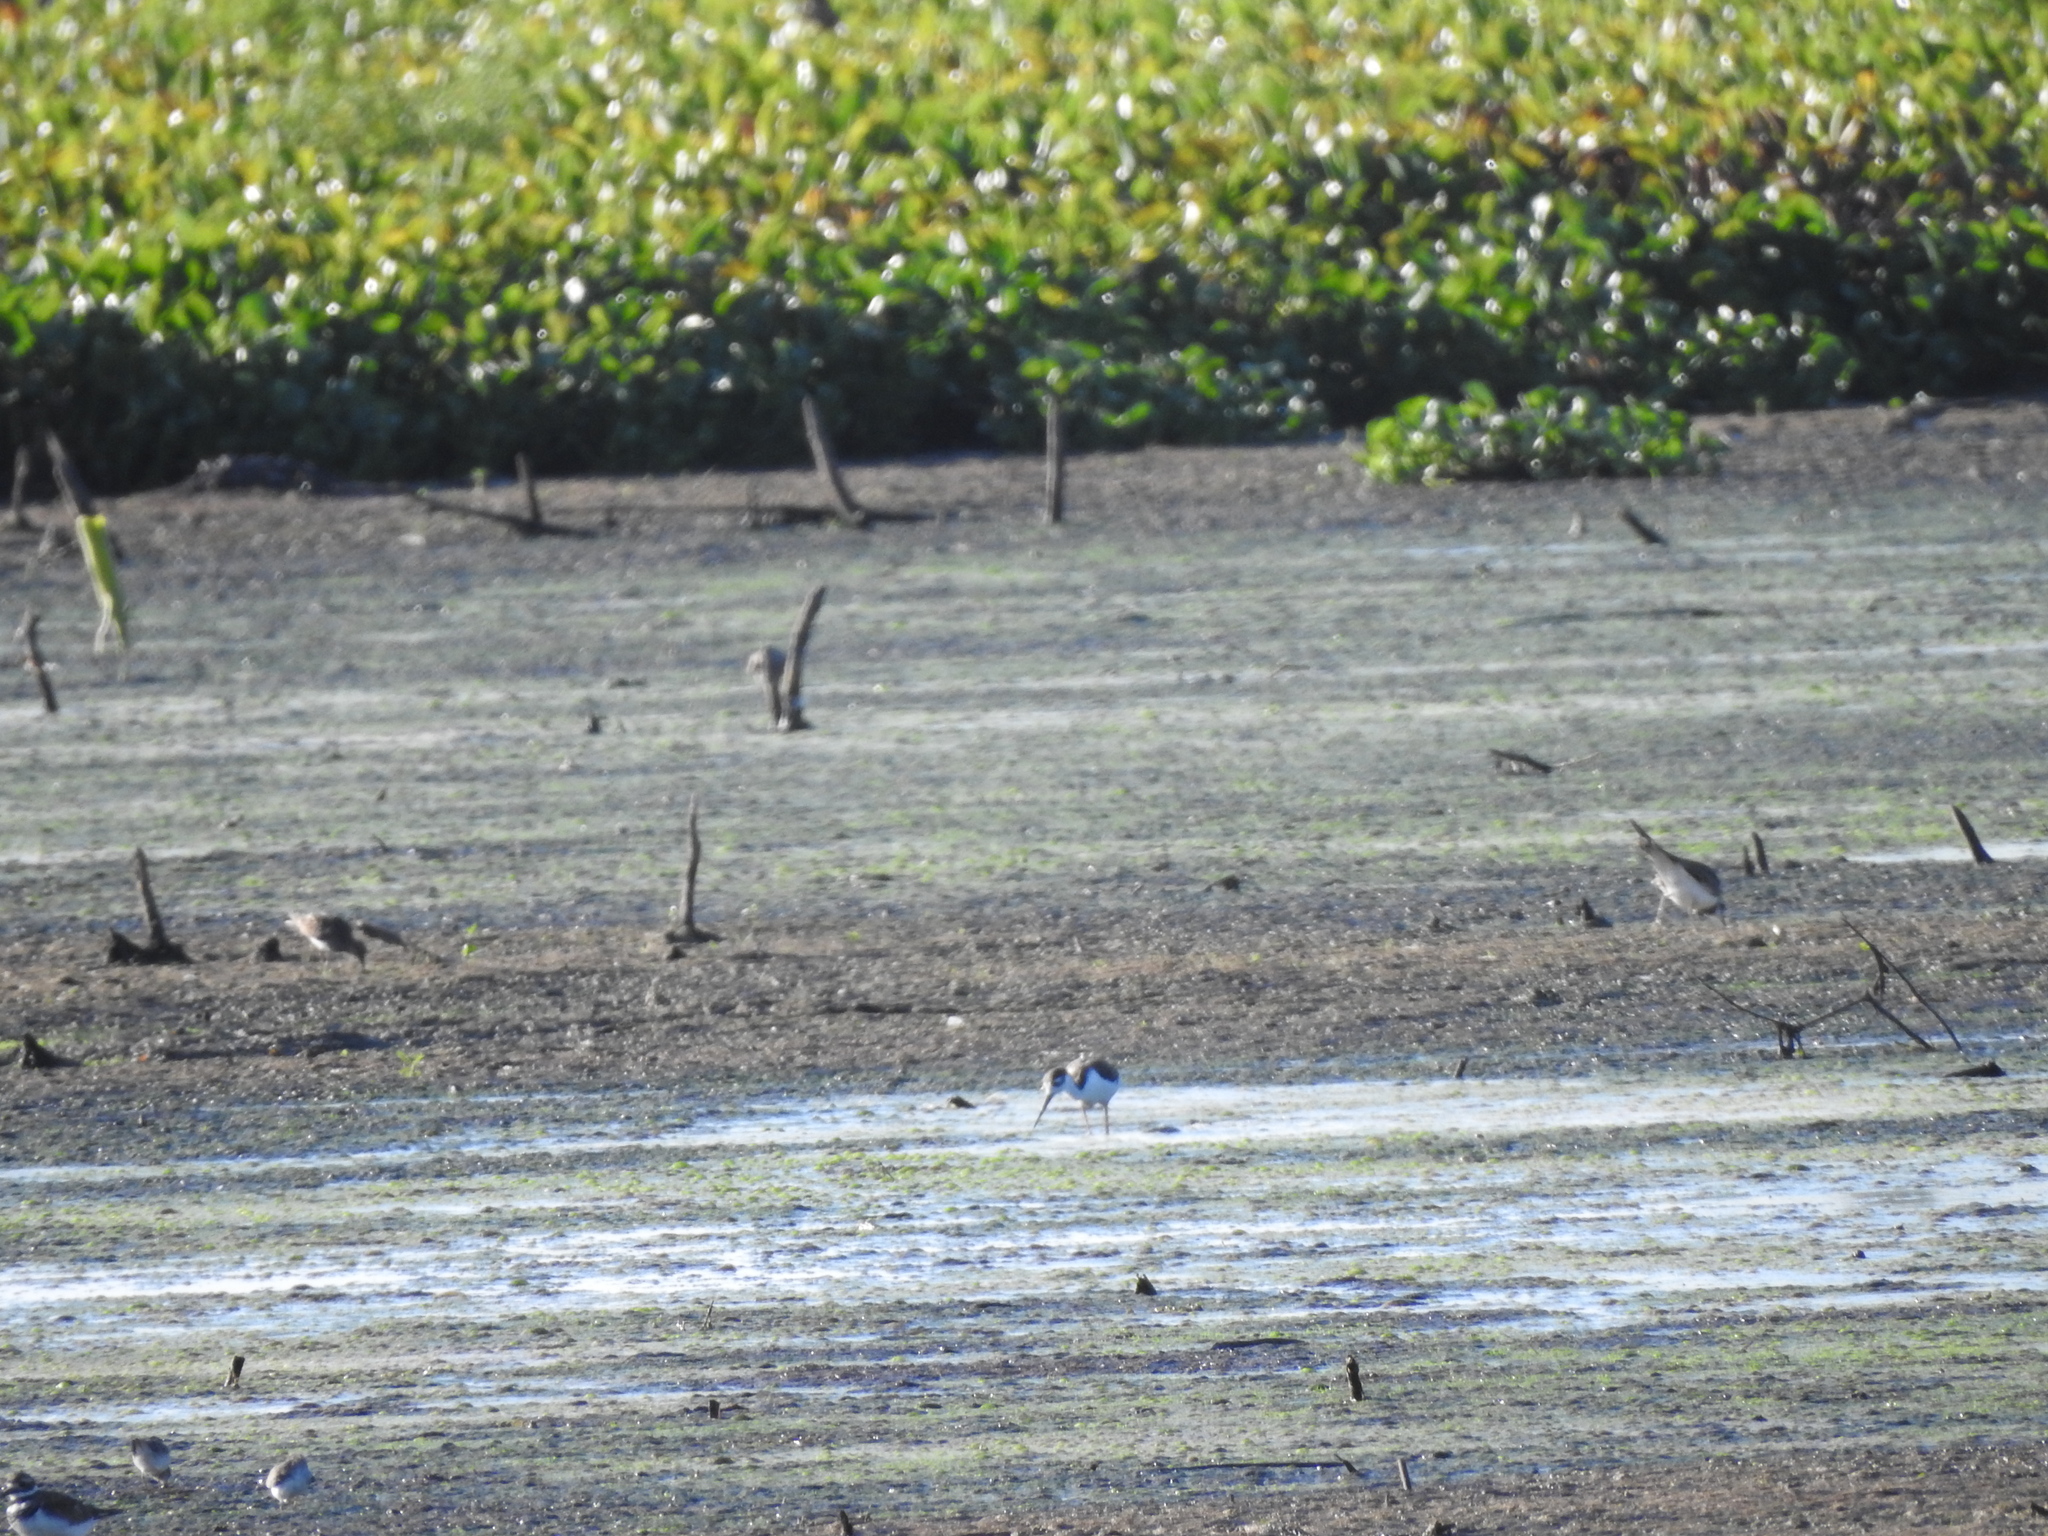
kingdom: Animalia
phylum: Chordata
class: Aves
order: Charadriiformes
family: Recurvirostridae
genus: Himantopus
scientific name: Himantopus mexicanus
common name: Black-necked stilt
